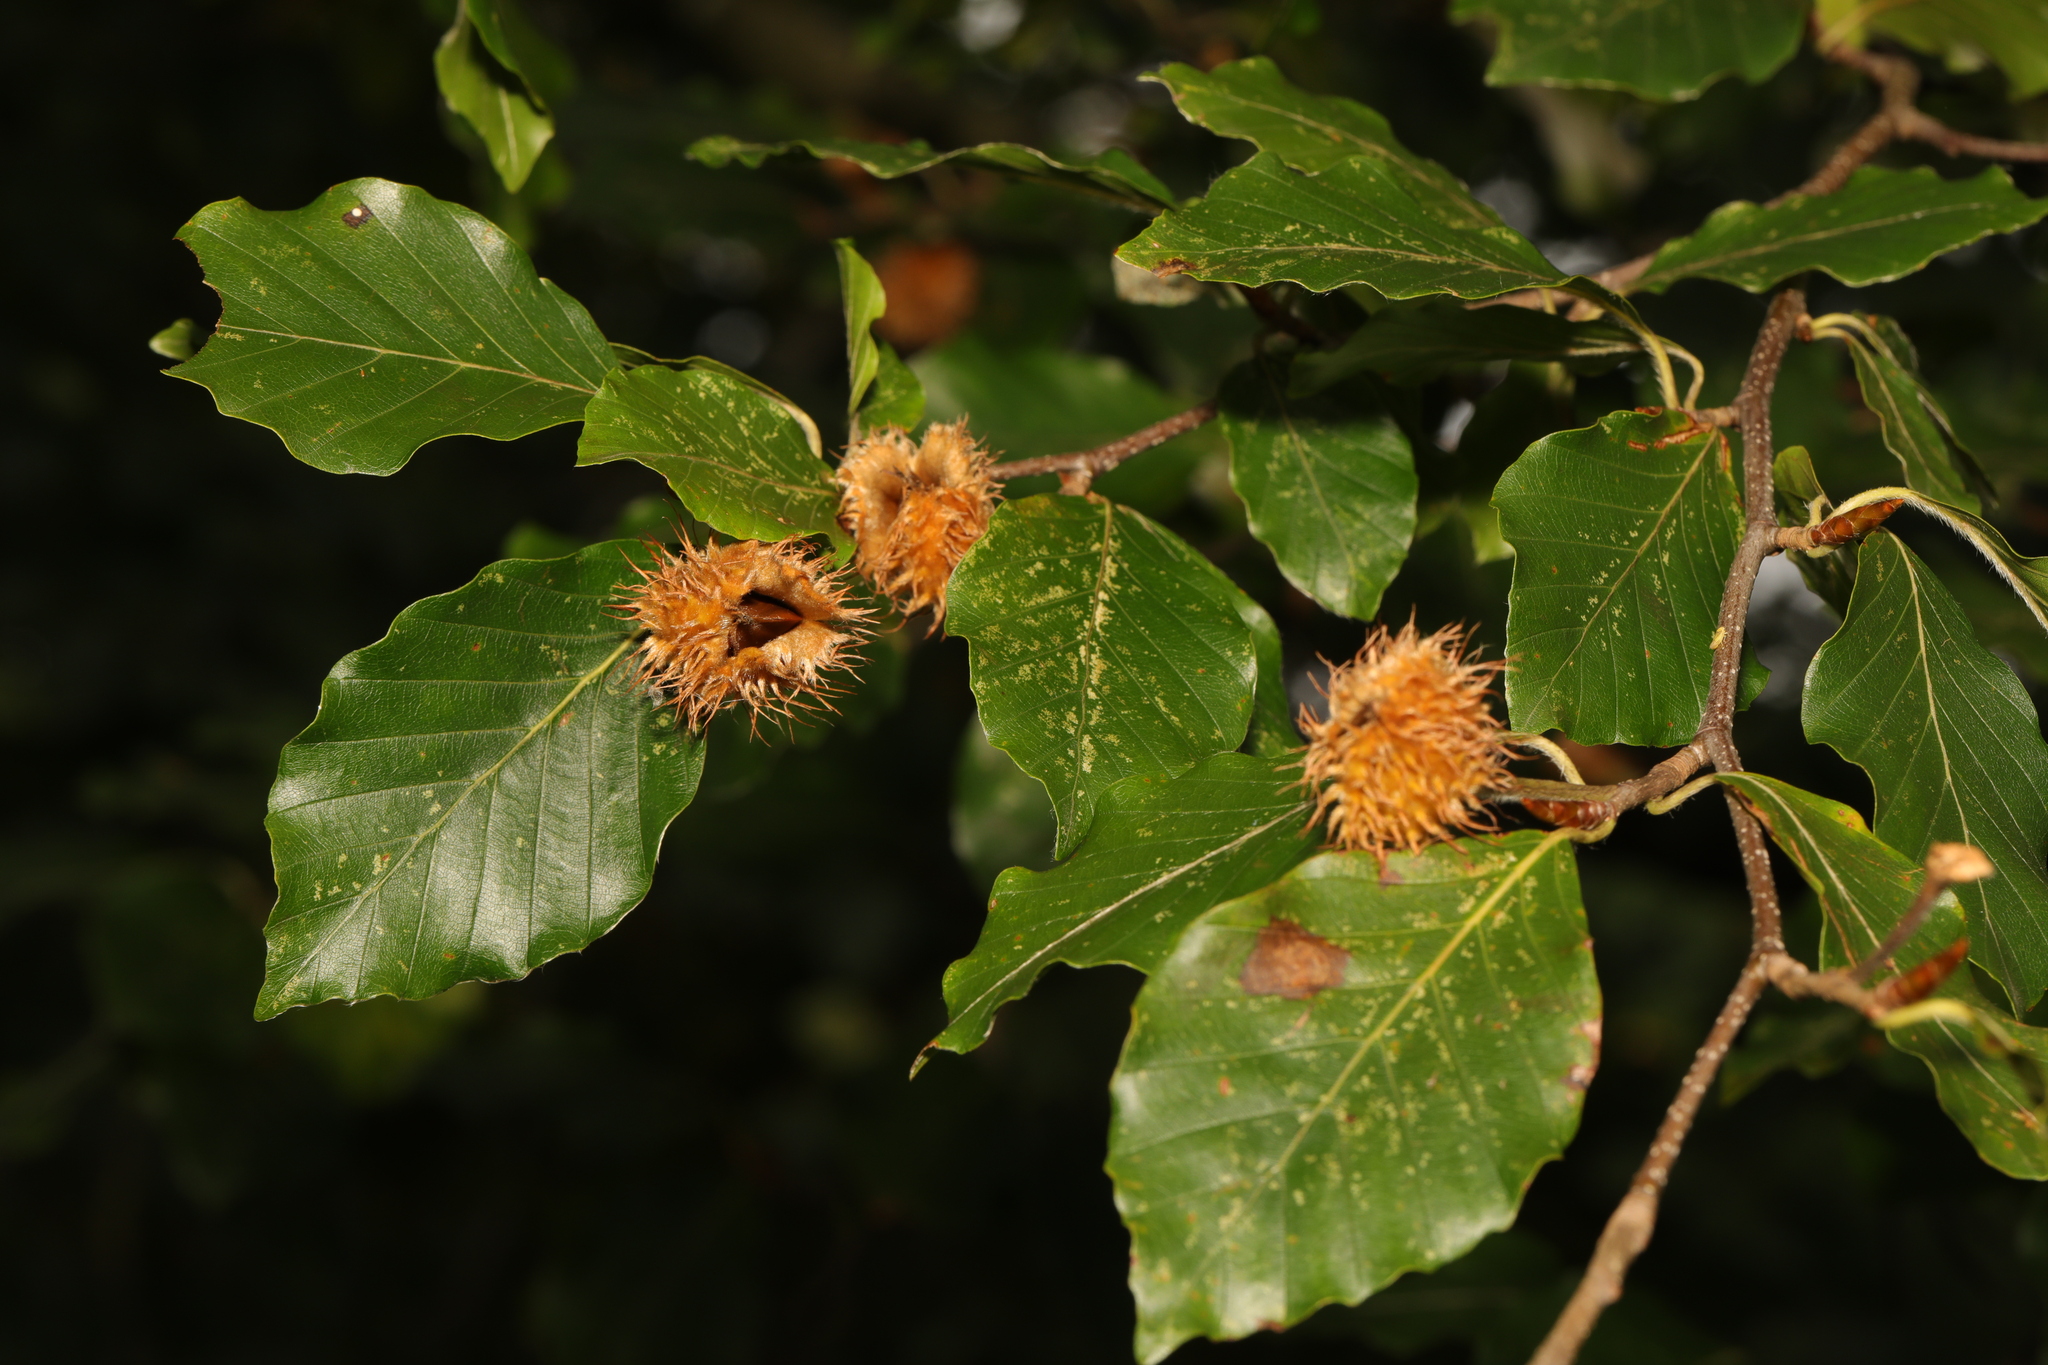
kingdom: Plantae
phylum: Tracheophyta
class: Magnoliopsida
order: Fagales
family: Fagaceae
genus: Fagus
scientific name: Fagus sylvatica
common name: Beech
